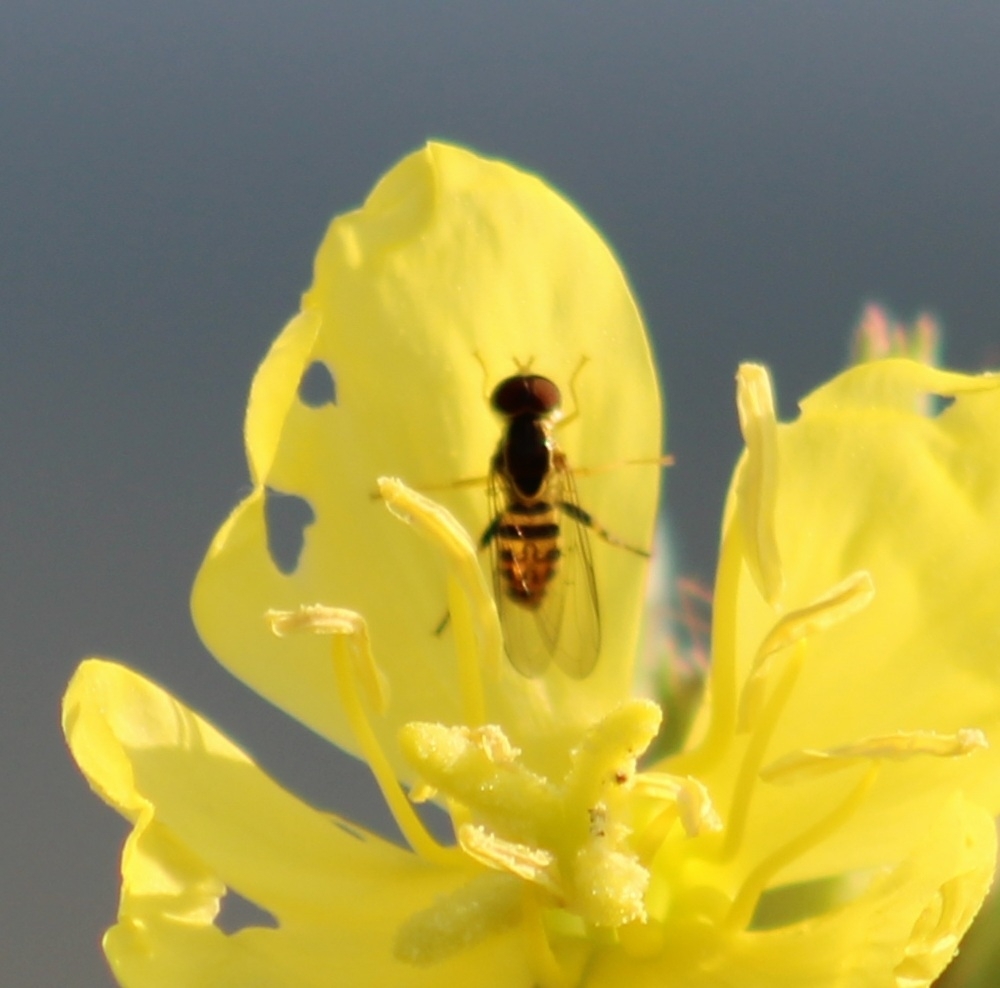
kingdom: Animalia
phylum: Arthropoda
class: Insecta
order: Diptera
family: Syrphidae
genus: Toxomerus
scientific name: Toxomerus geminatus
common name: Eastern calligrapher
